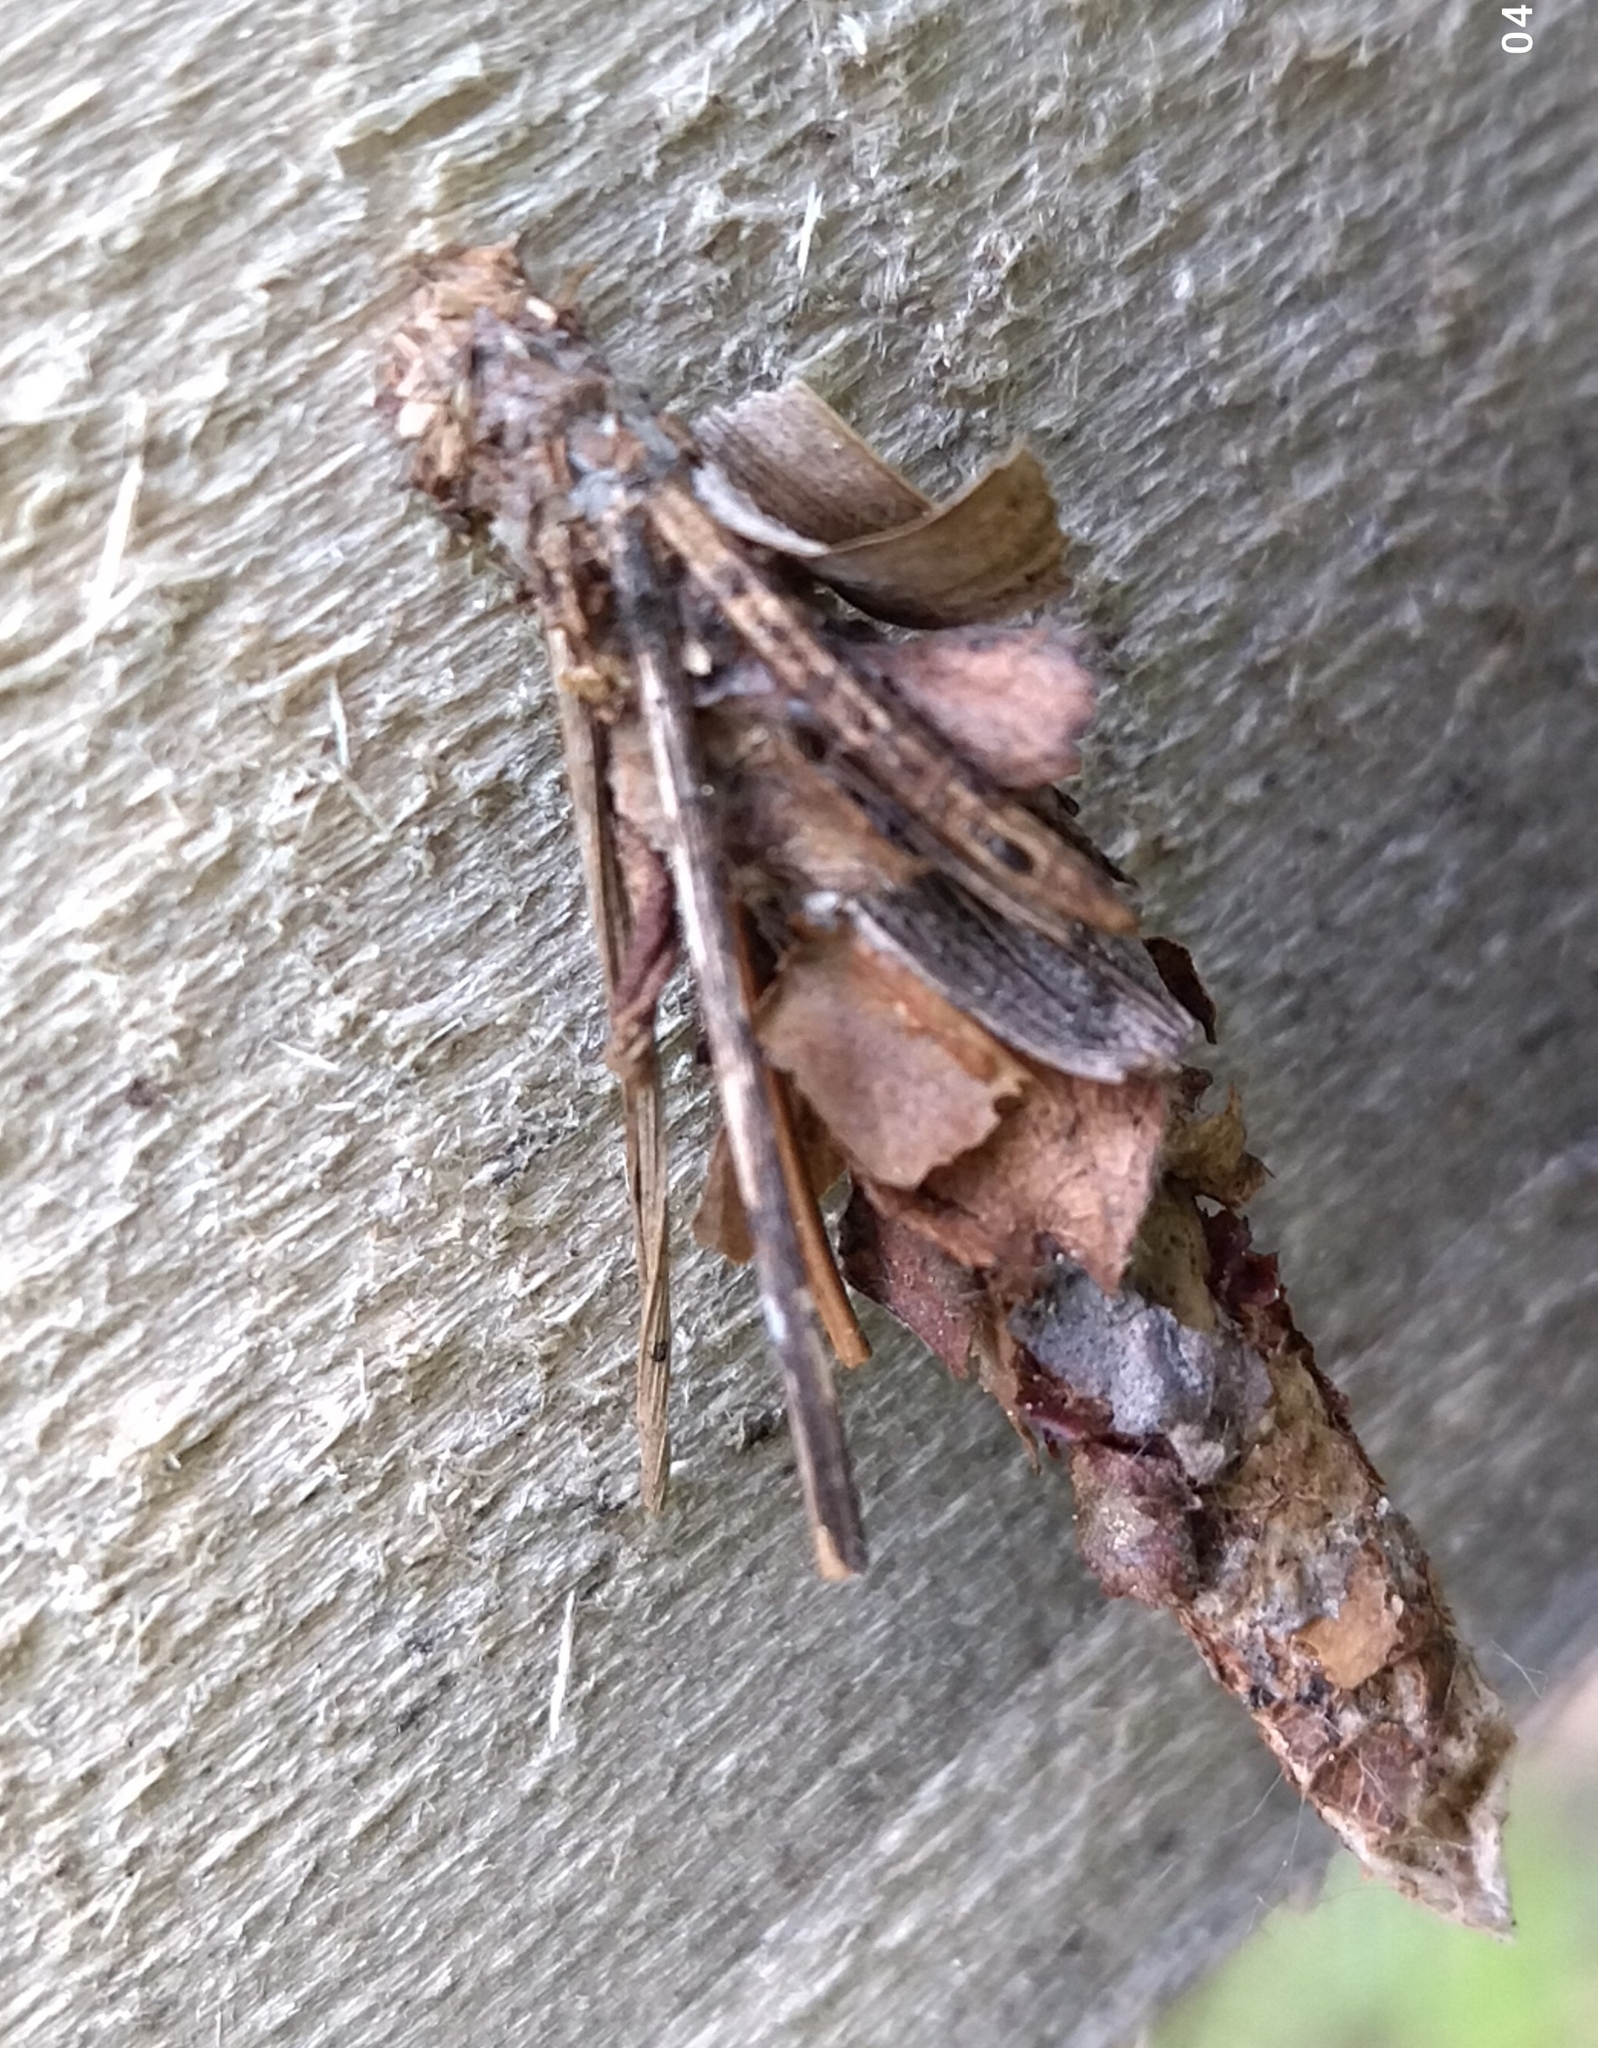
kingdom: Animalia
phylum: Arthropoda
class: Insecta
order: Lepidoptera
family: Psychidae
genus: Canephora
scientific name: Canephora hirsuta
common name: Hairy sweep
